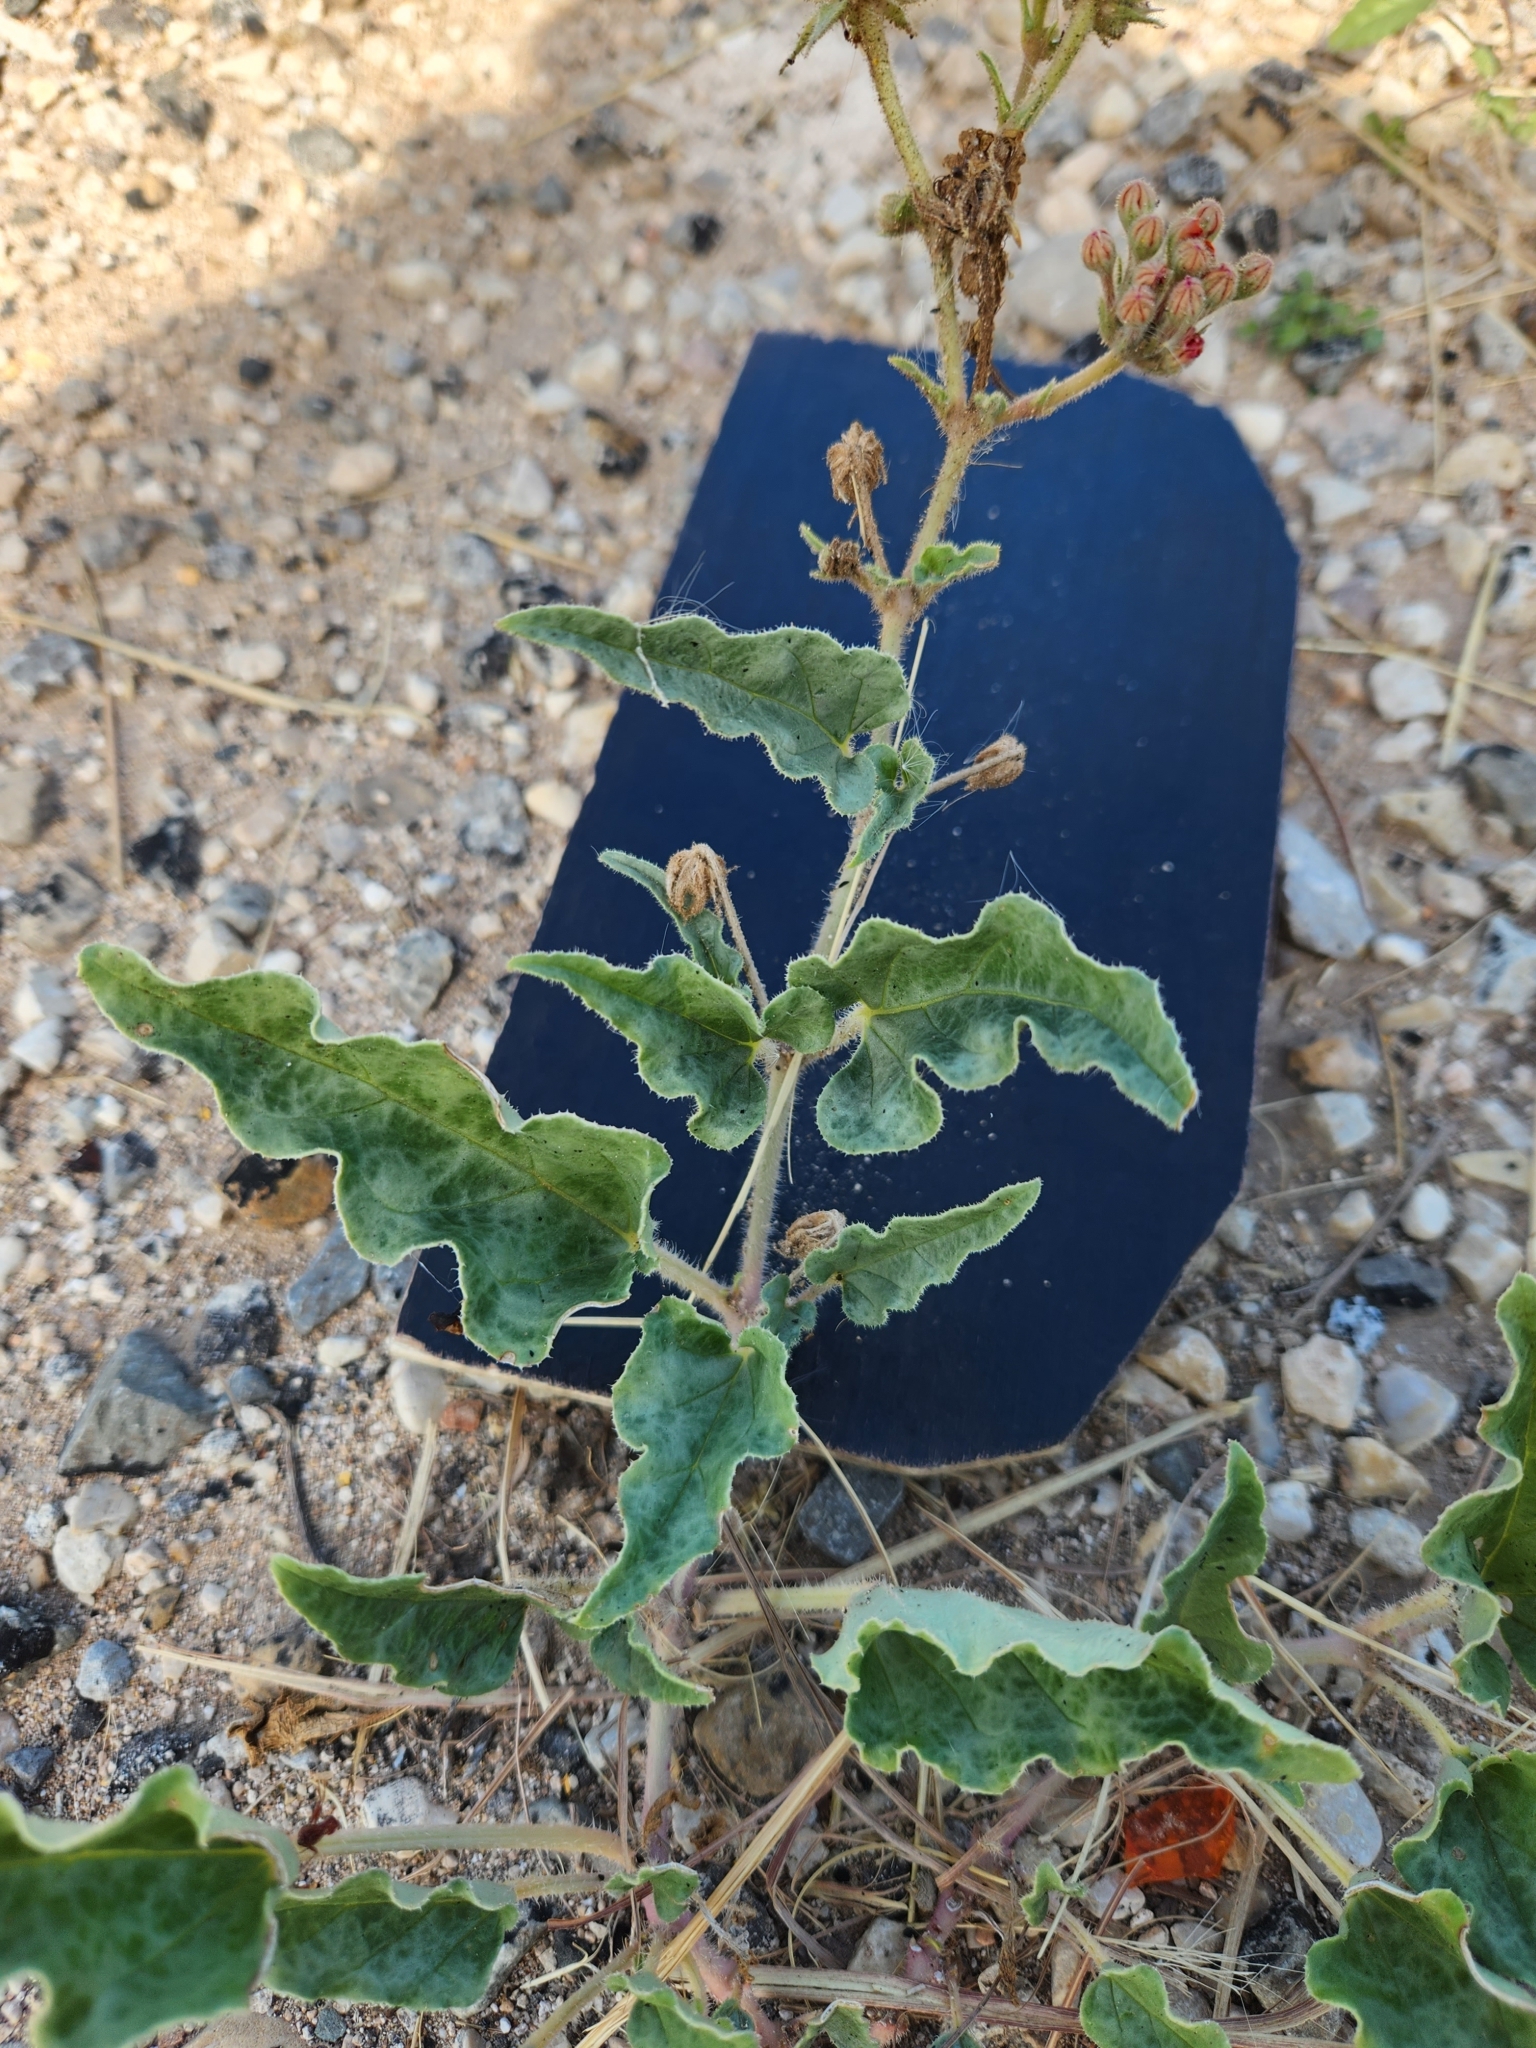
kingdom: Plantae
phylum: Tracheophyta
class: Magnoliopsida
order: Caryophyllales
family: Nyctaginaceae
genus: Nyctaginia
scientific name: Nyctaginia capitata
